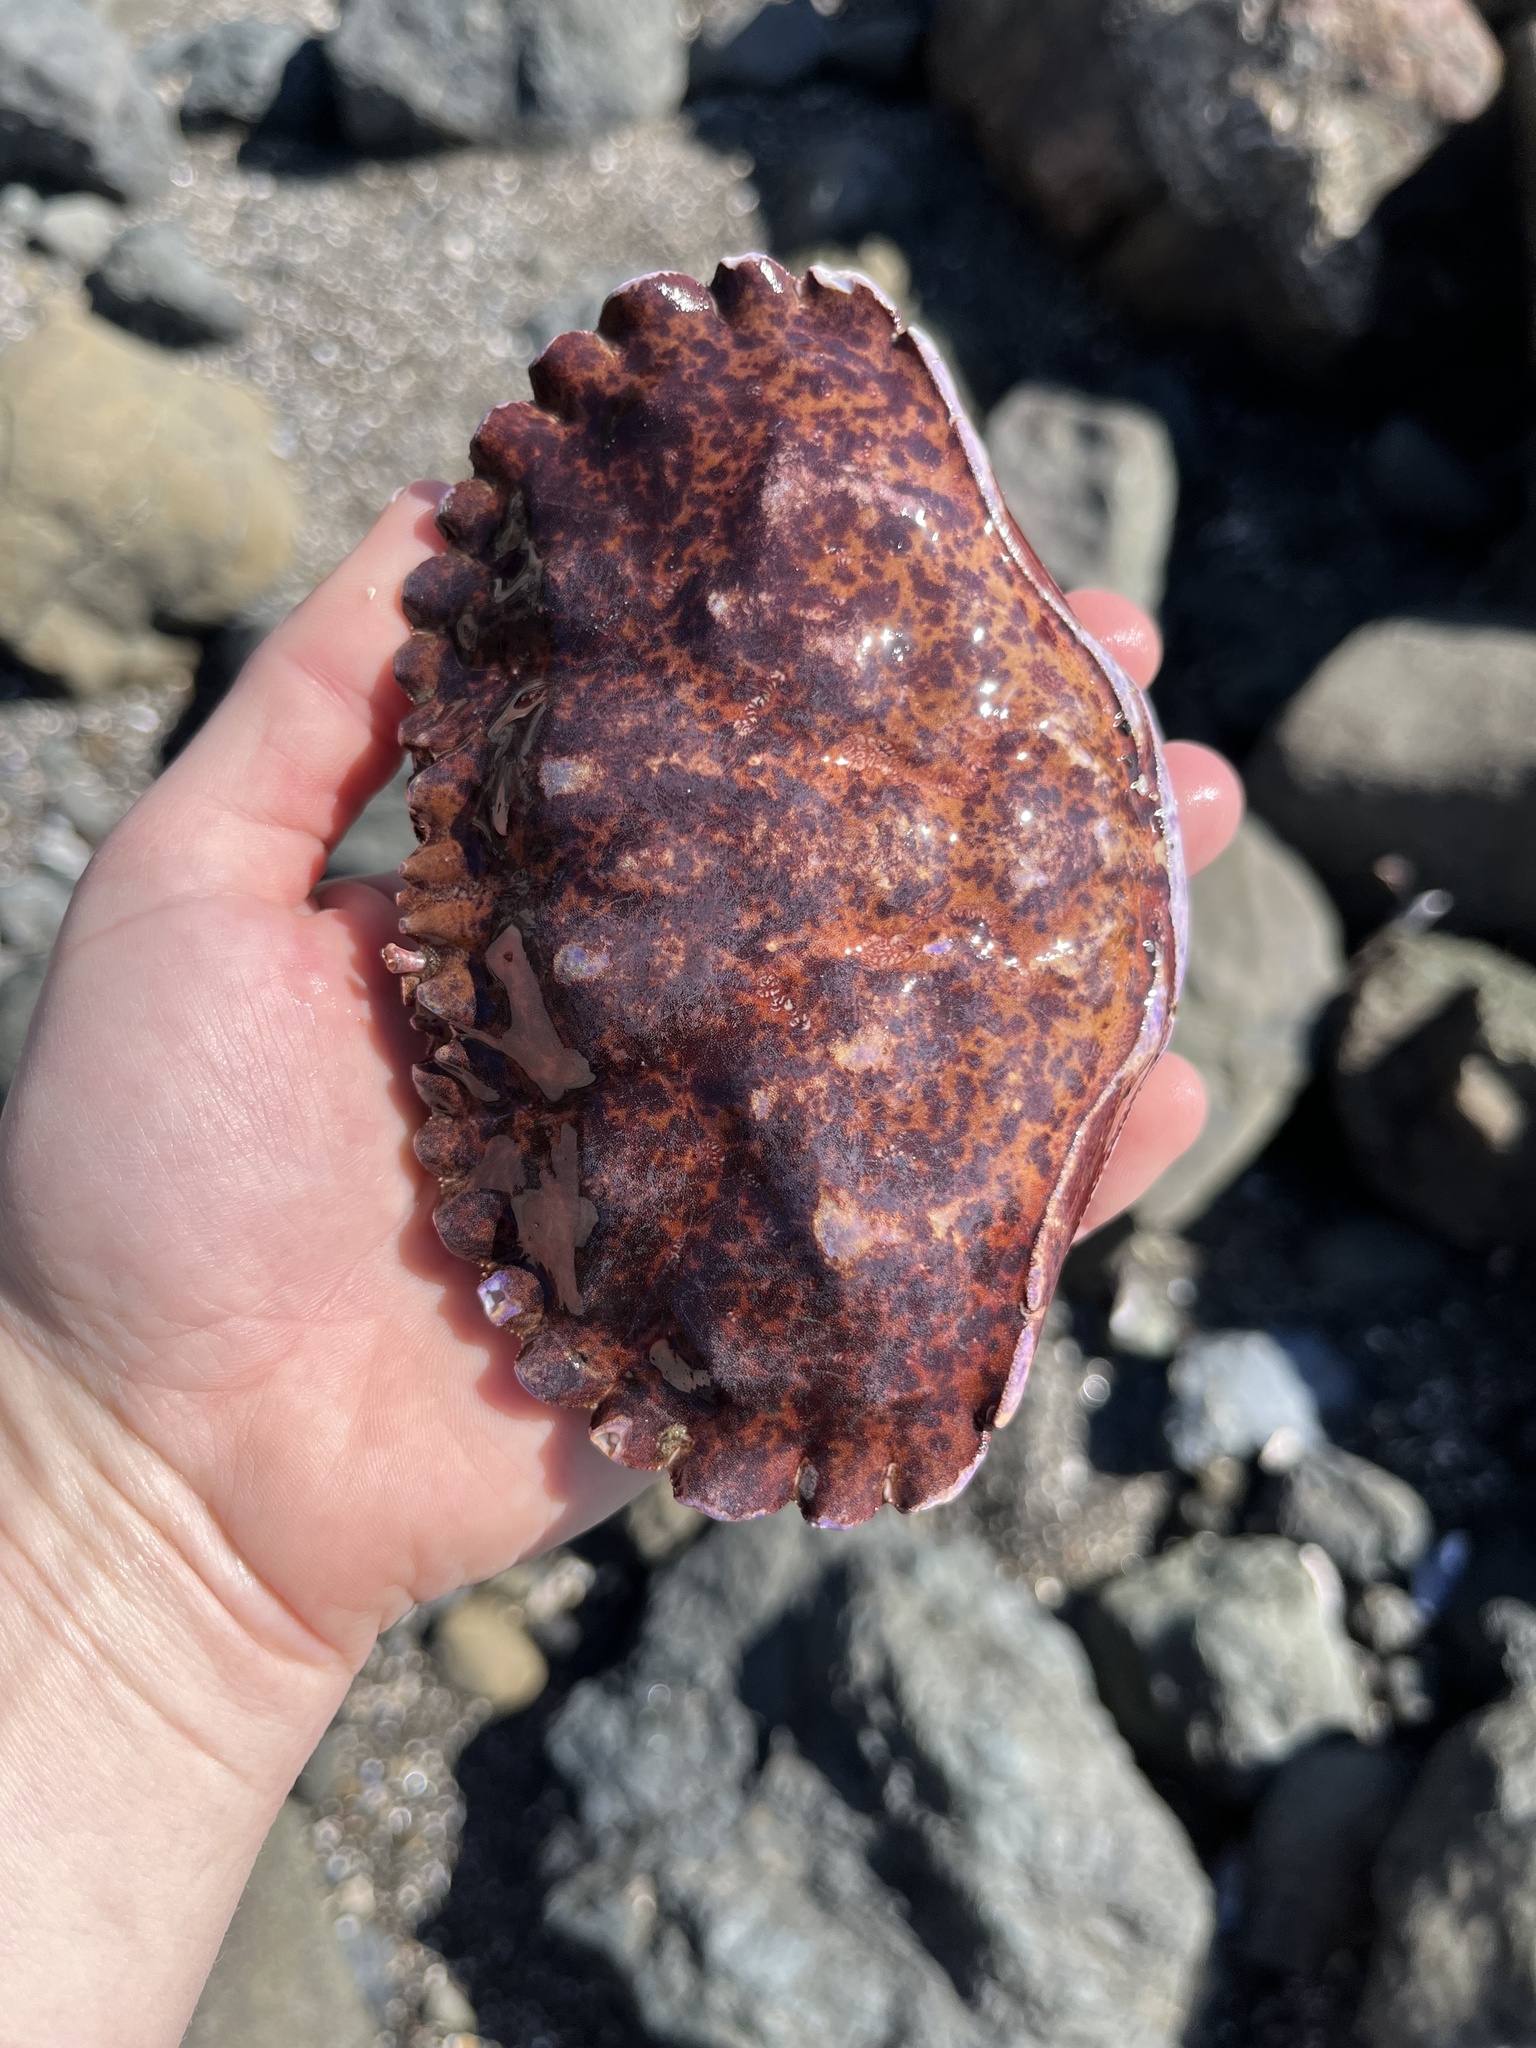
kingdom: Animalia
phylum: Arthropoda
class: Malacostraca
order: Decapoda
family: Cancridae
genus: Romaleon
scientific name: Romaleon antennarium
